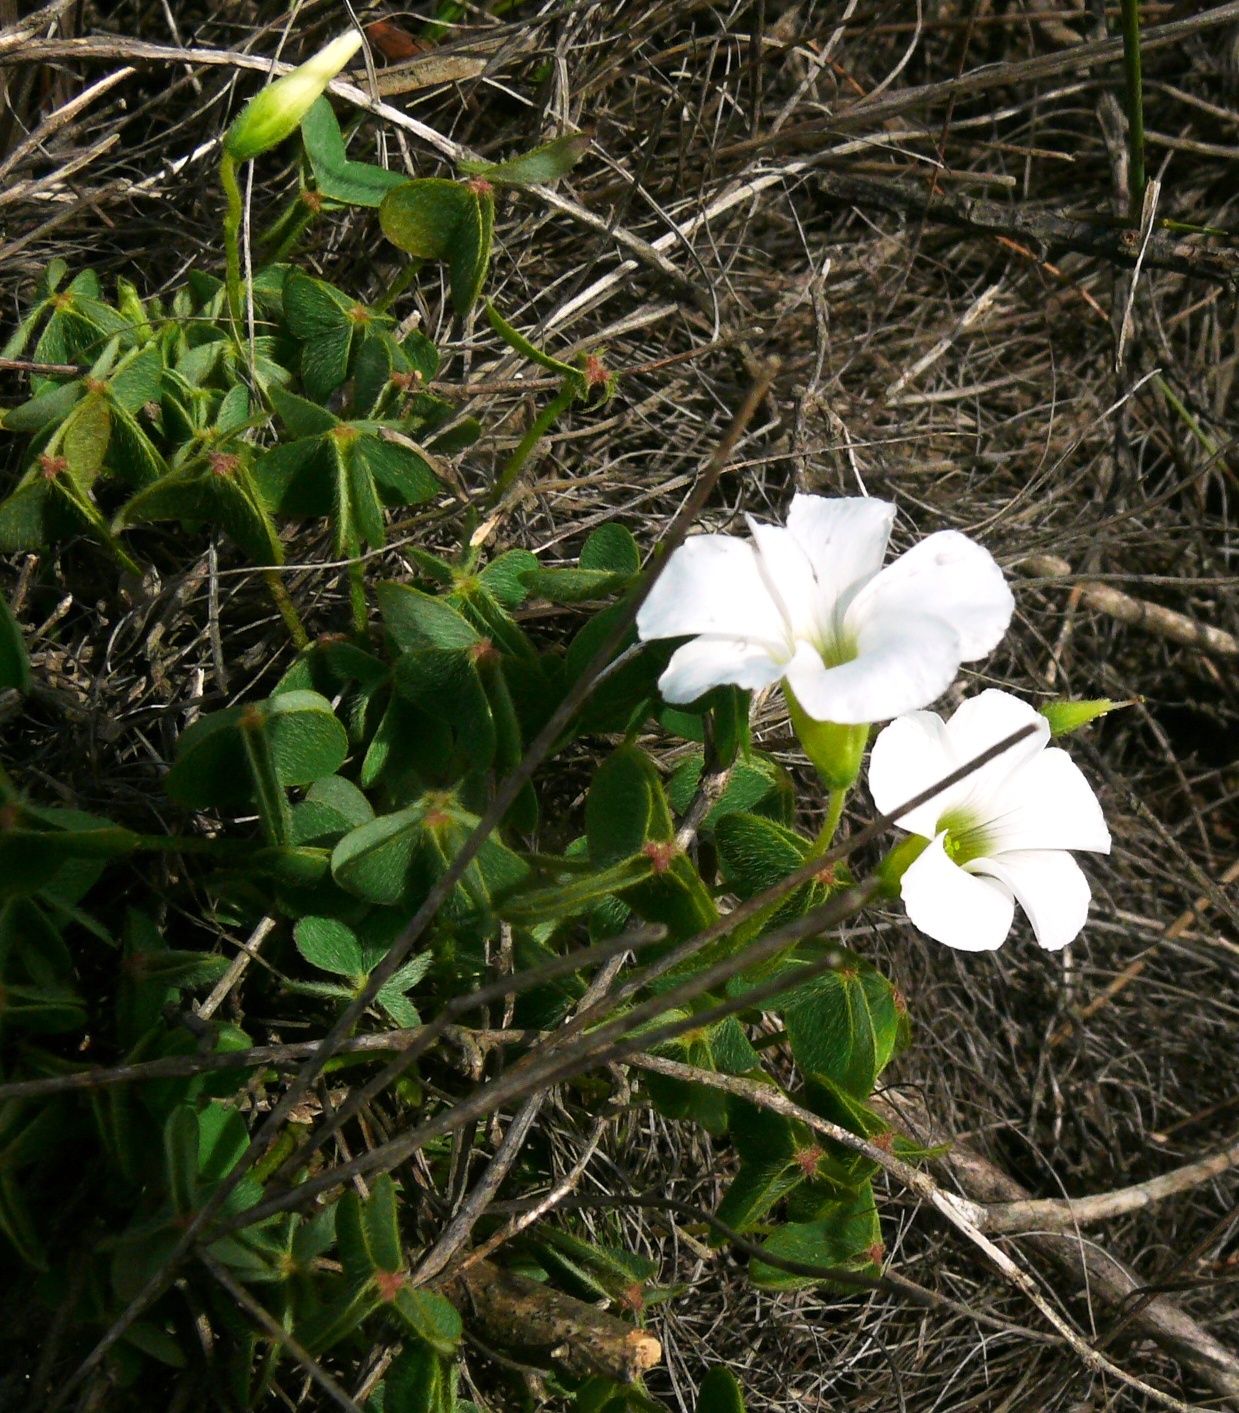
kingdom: Plantae
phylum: Tracheophyta
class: Magnoliopsida
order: Oxalidales
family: Oxalidaceae
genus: Oxalis
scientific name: Oxalis lanata
